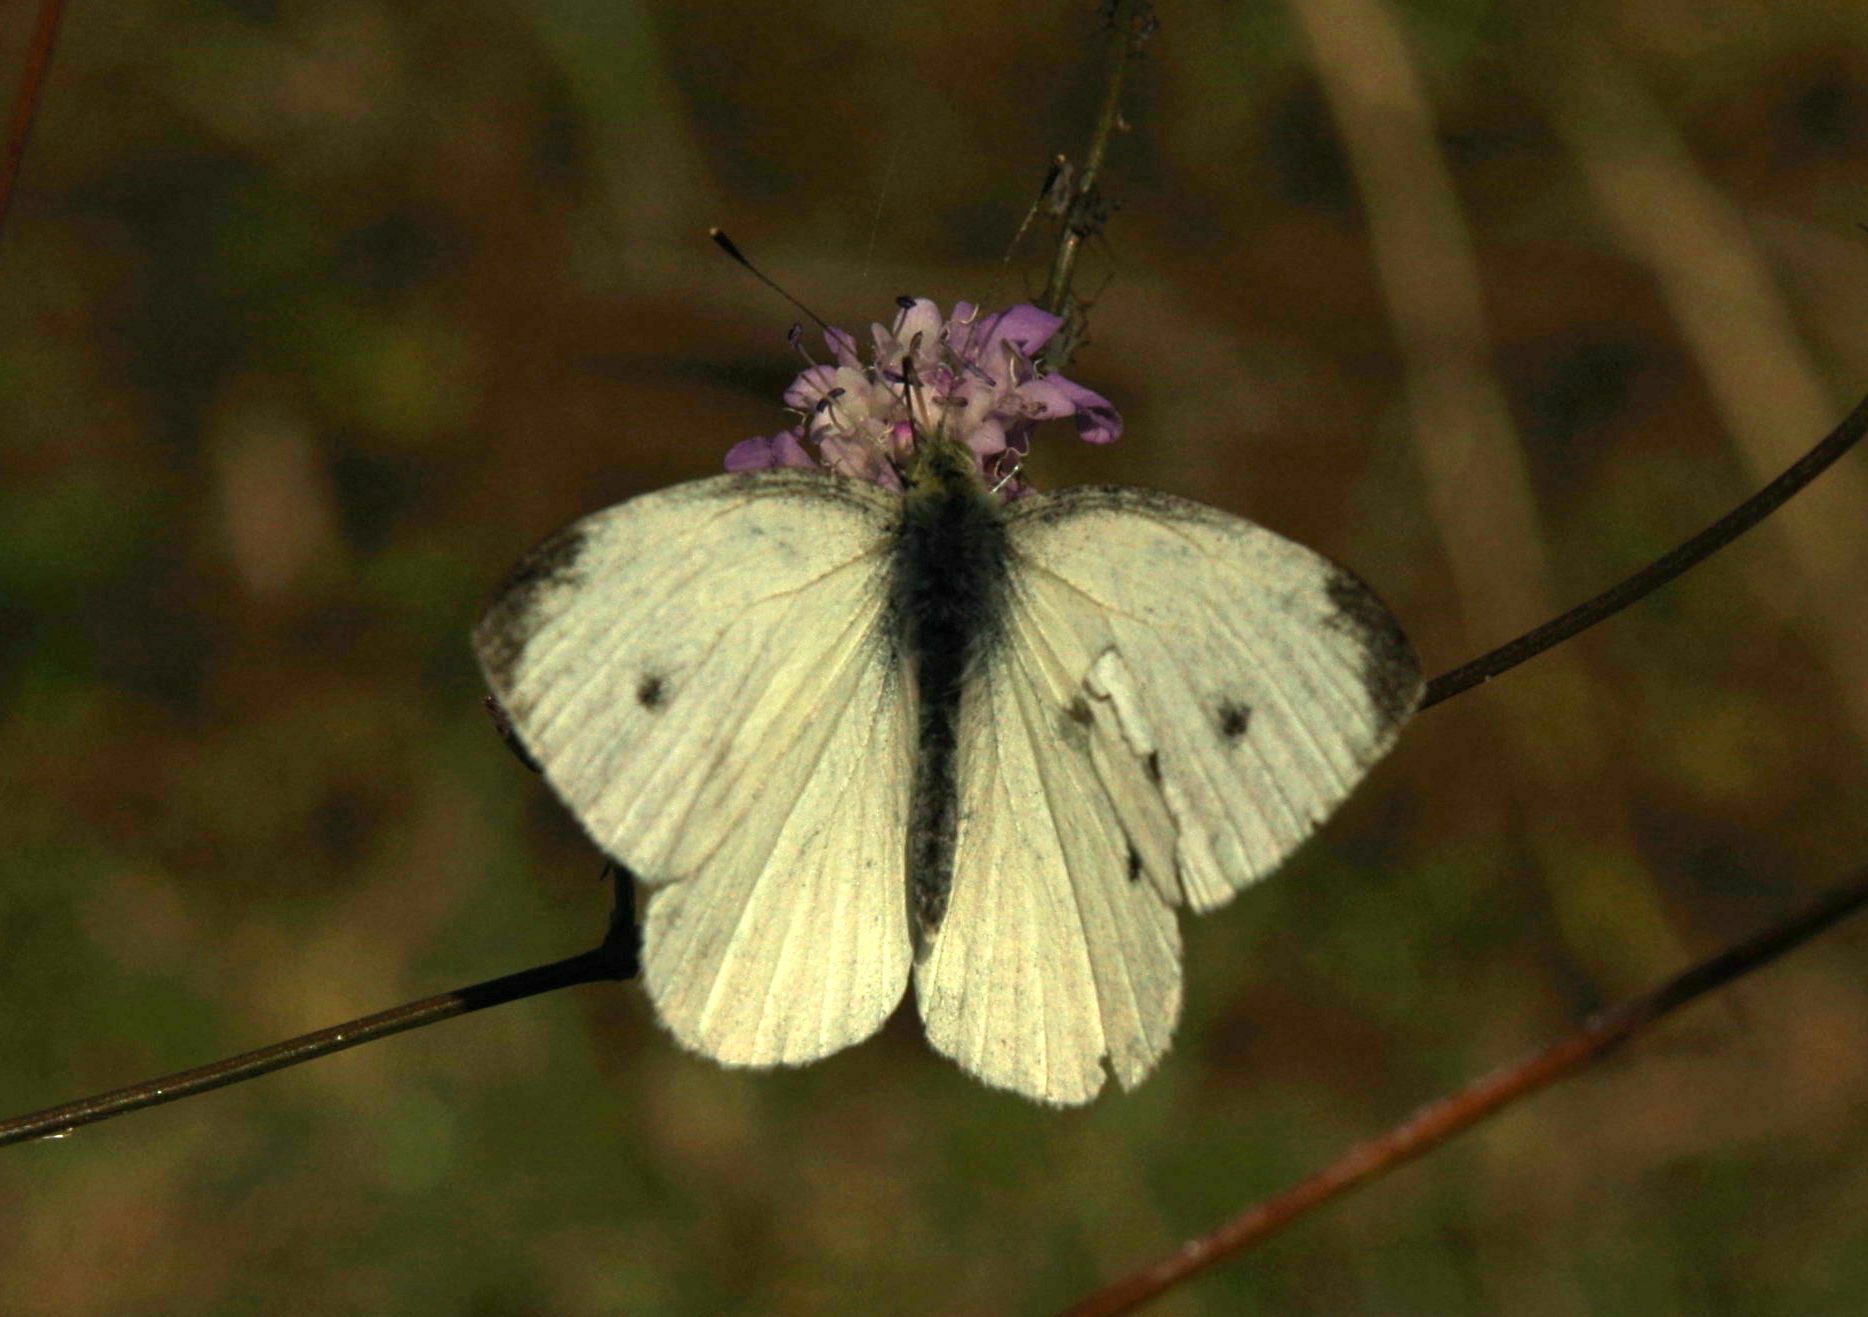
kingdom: Animalia
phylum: Arthropoda
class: Insecta
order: Lepidoptera
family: Pieridae
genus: Pieris
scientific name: Pieris rapae
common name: Small white
